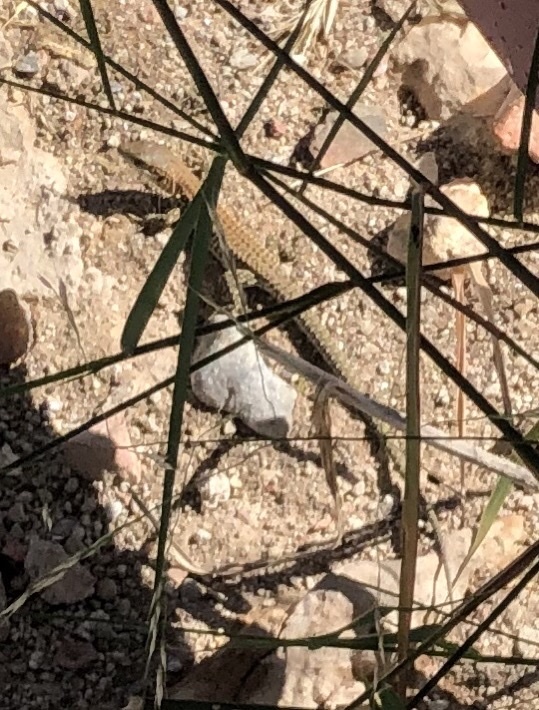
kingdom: Animalia
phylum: Chordata
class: Squamata
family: Lacertidae
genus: Podarcis
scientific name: Podarcis liolepis
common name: Catalonian wall lizard
